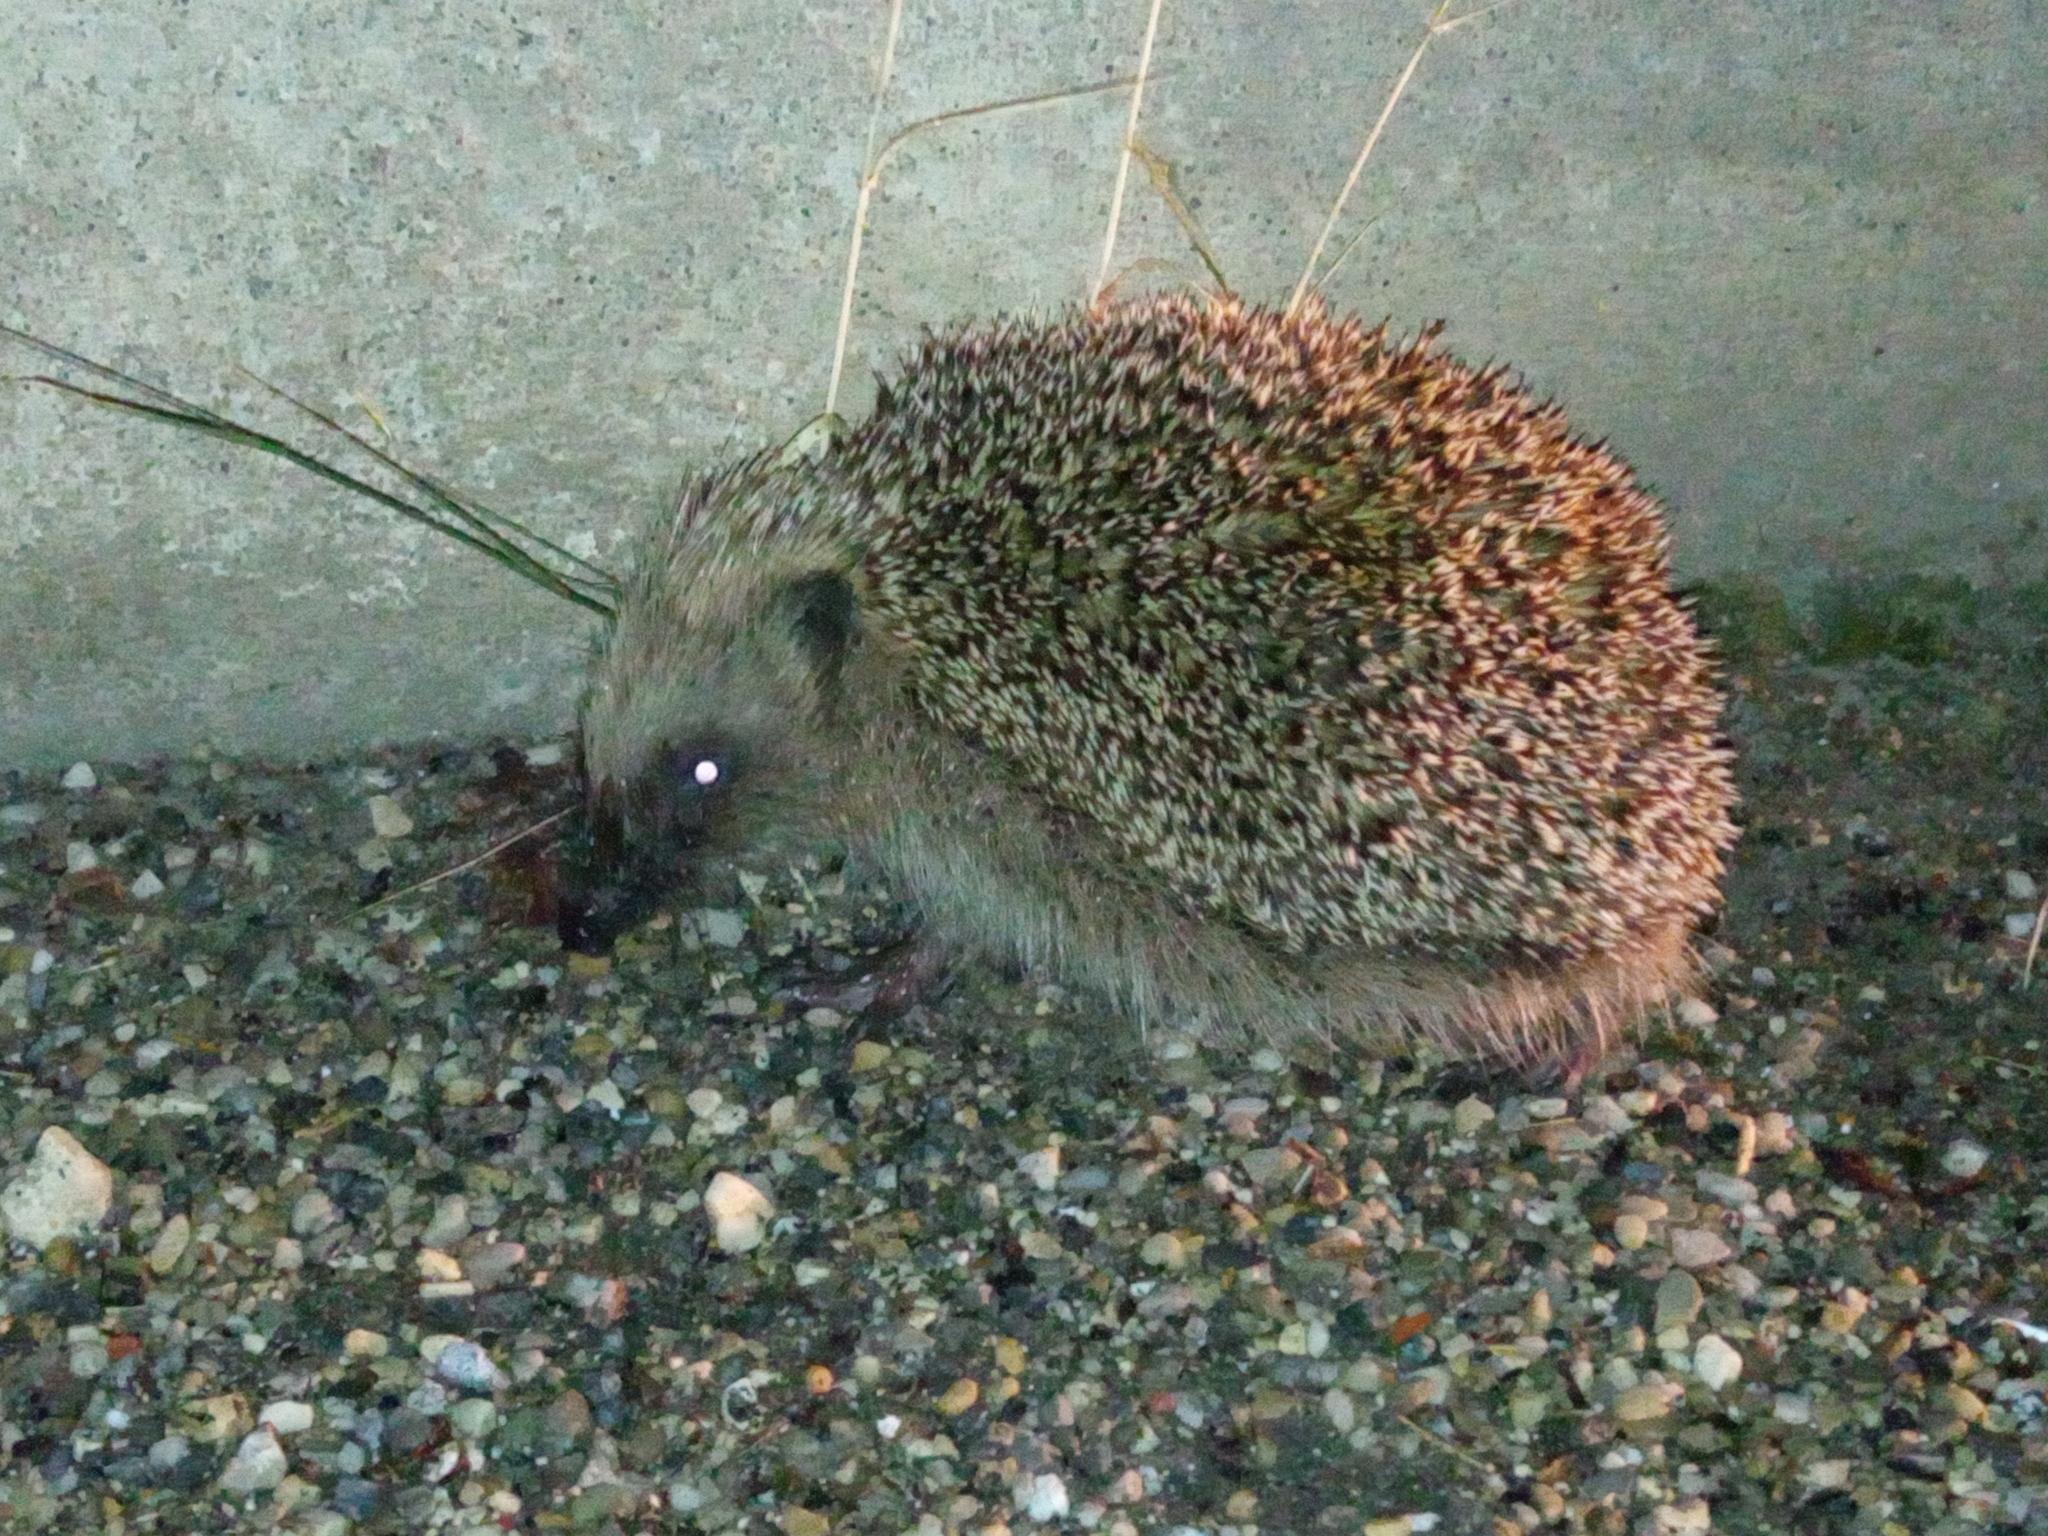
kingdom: Animalia
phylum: Chordata
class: Mammalia
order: Erinaceomorpha
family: Erinaceidae
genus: Erinaceus
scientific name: Erinaceus europaeus
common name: West european hedgehog
